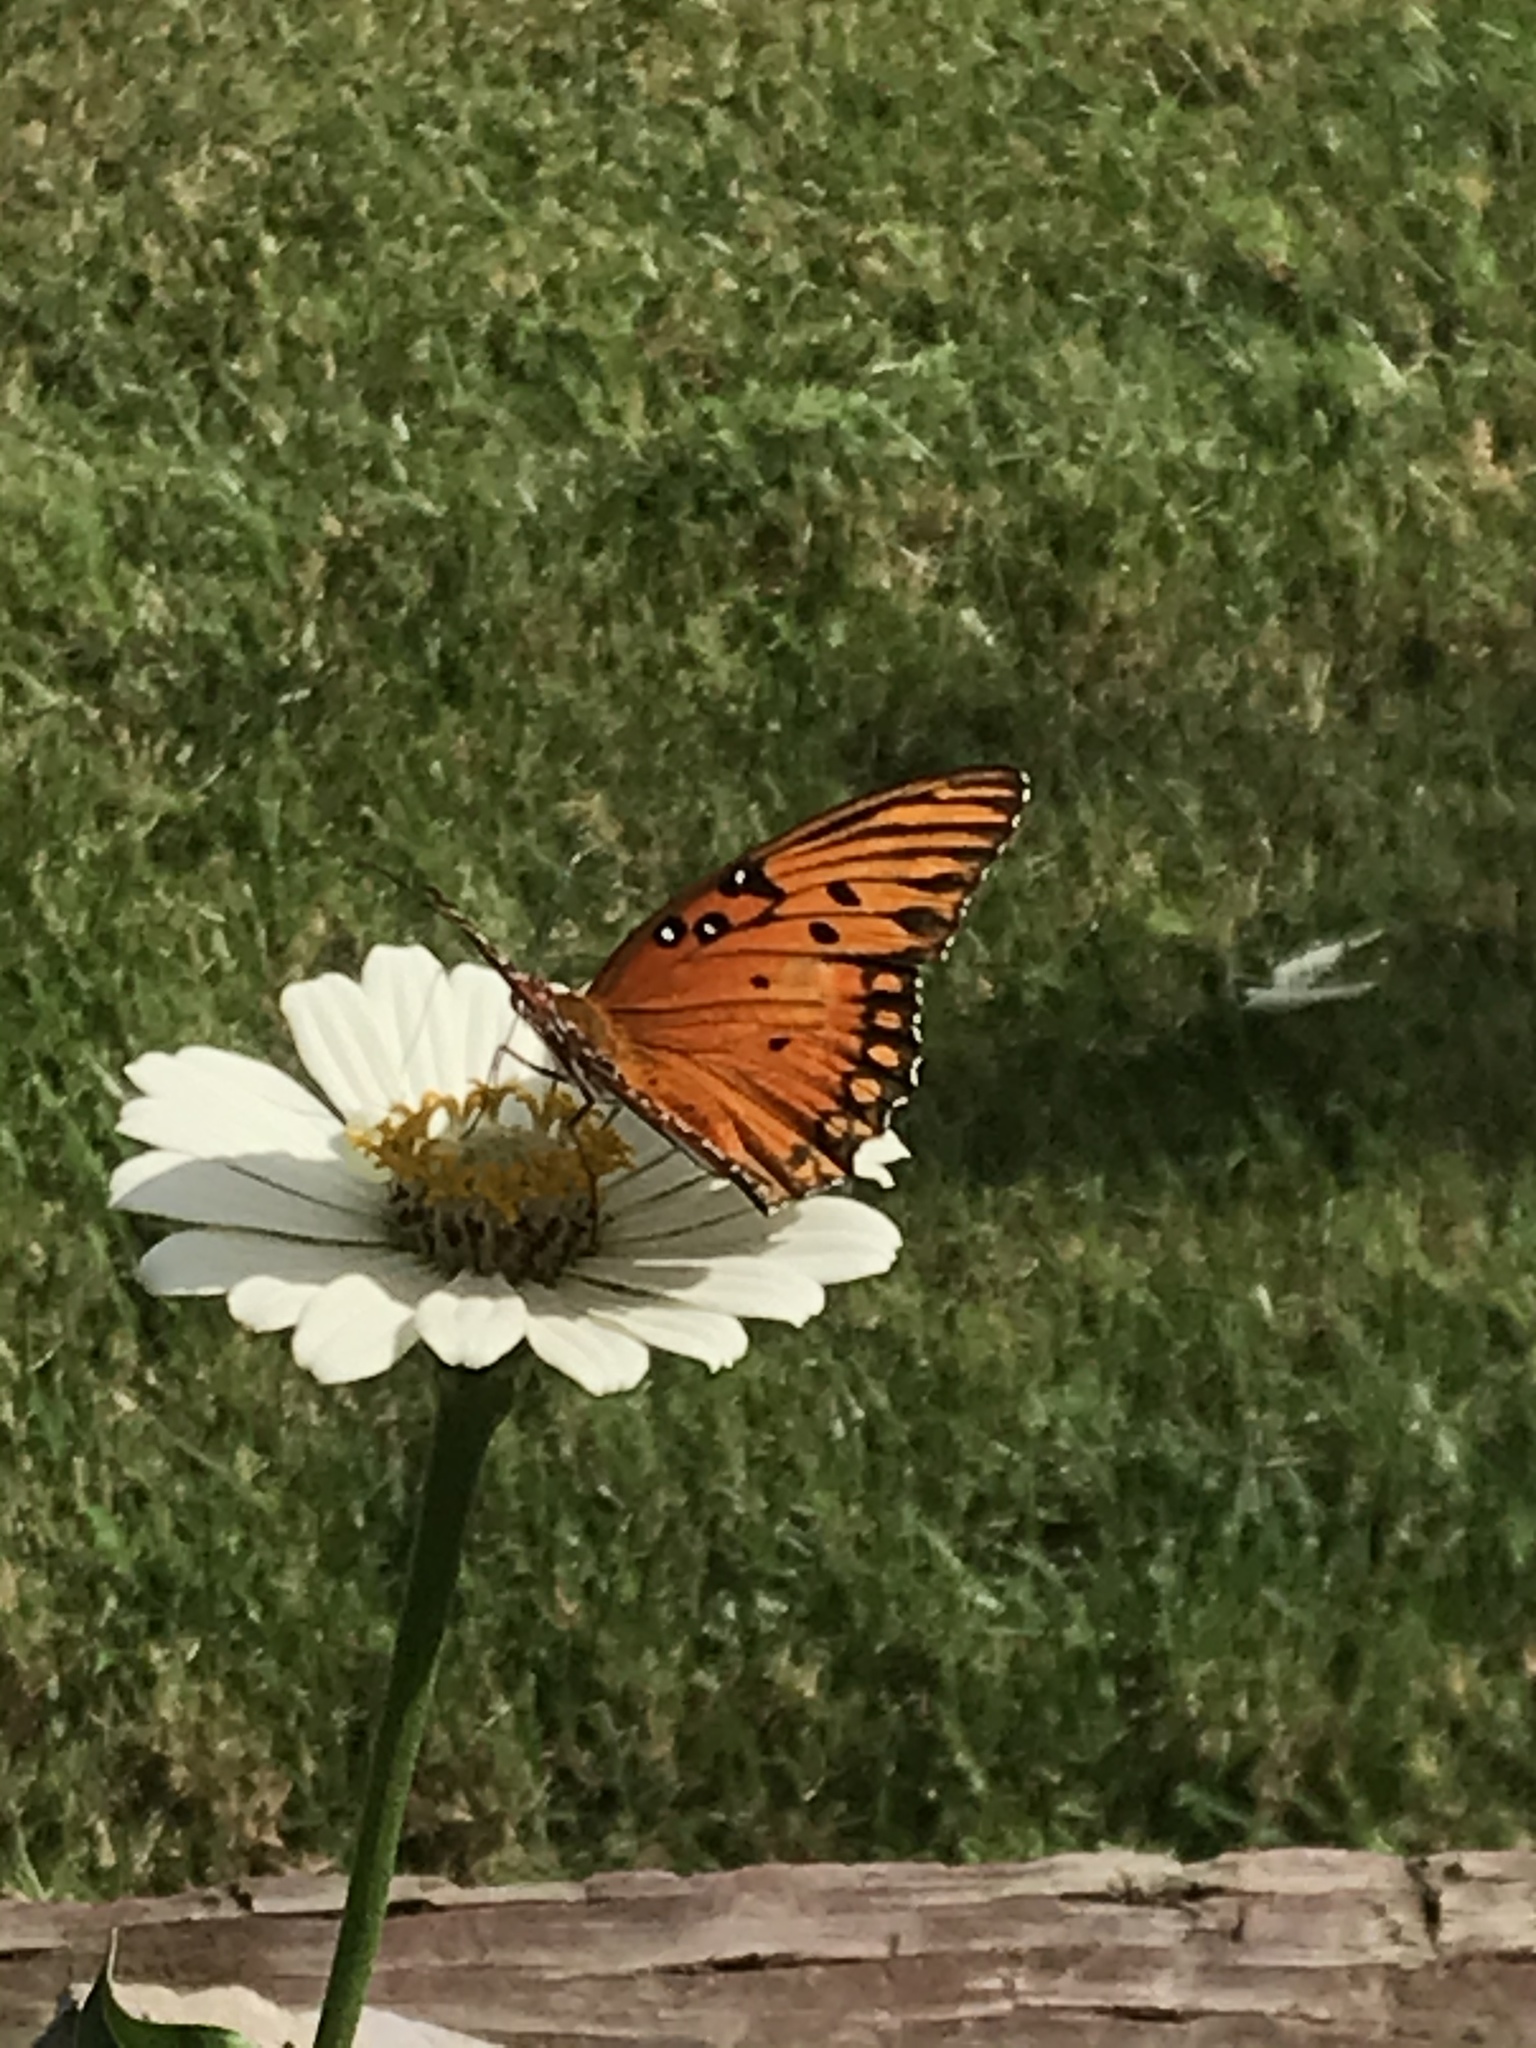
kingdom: Animalia
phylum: Arthropoda
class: Insecta
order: Lepidoptera
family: Nymphalidae
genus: Dione
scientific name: Dione vanillae
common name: Gulf fritillary
